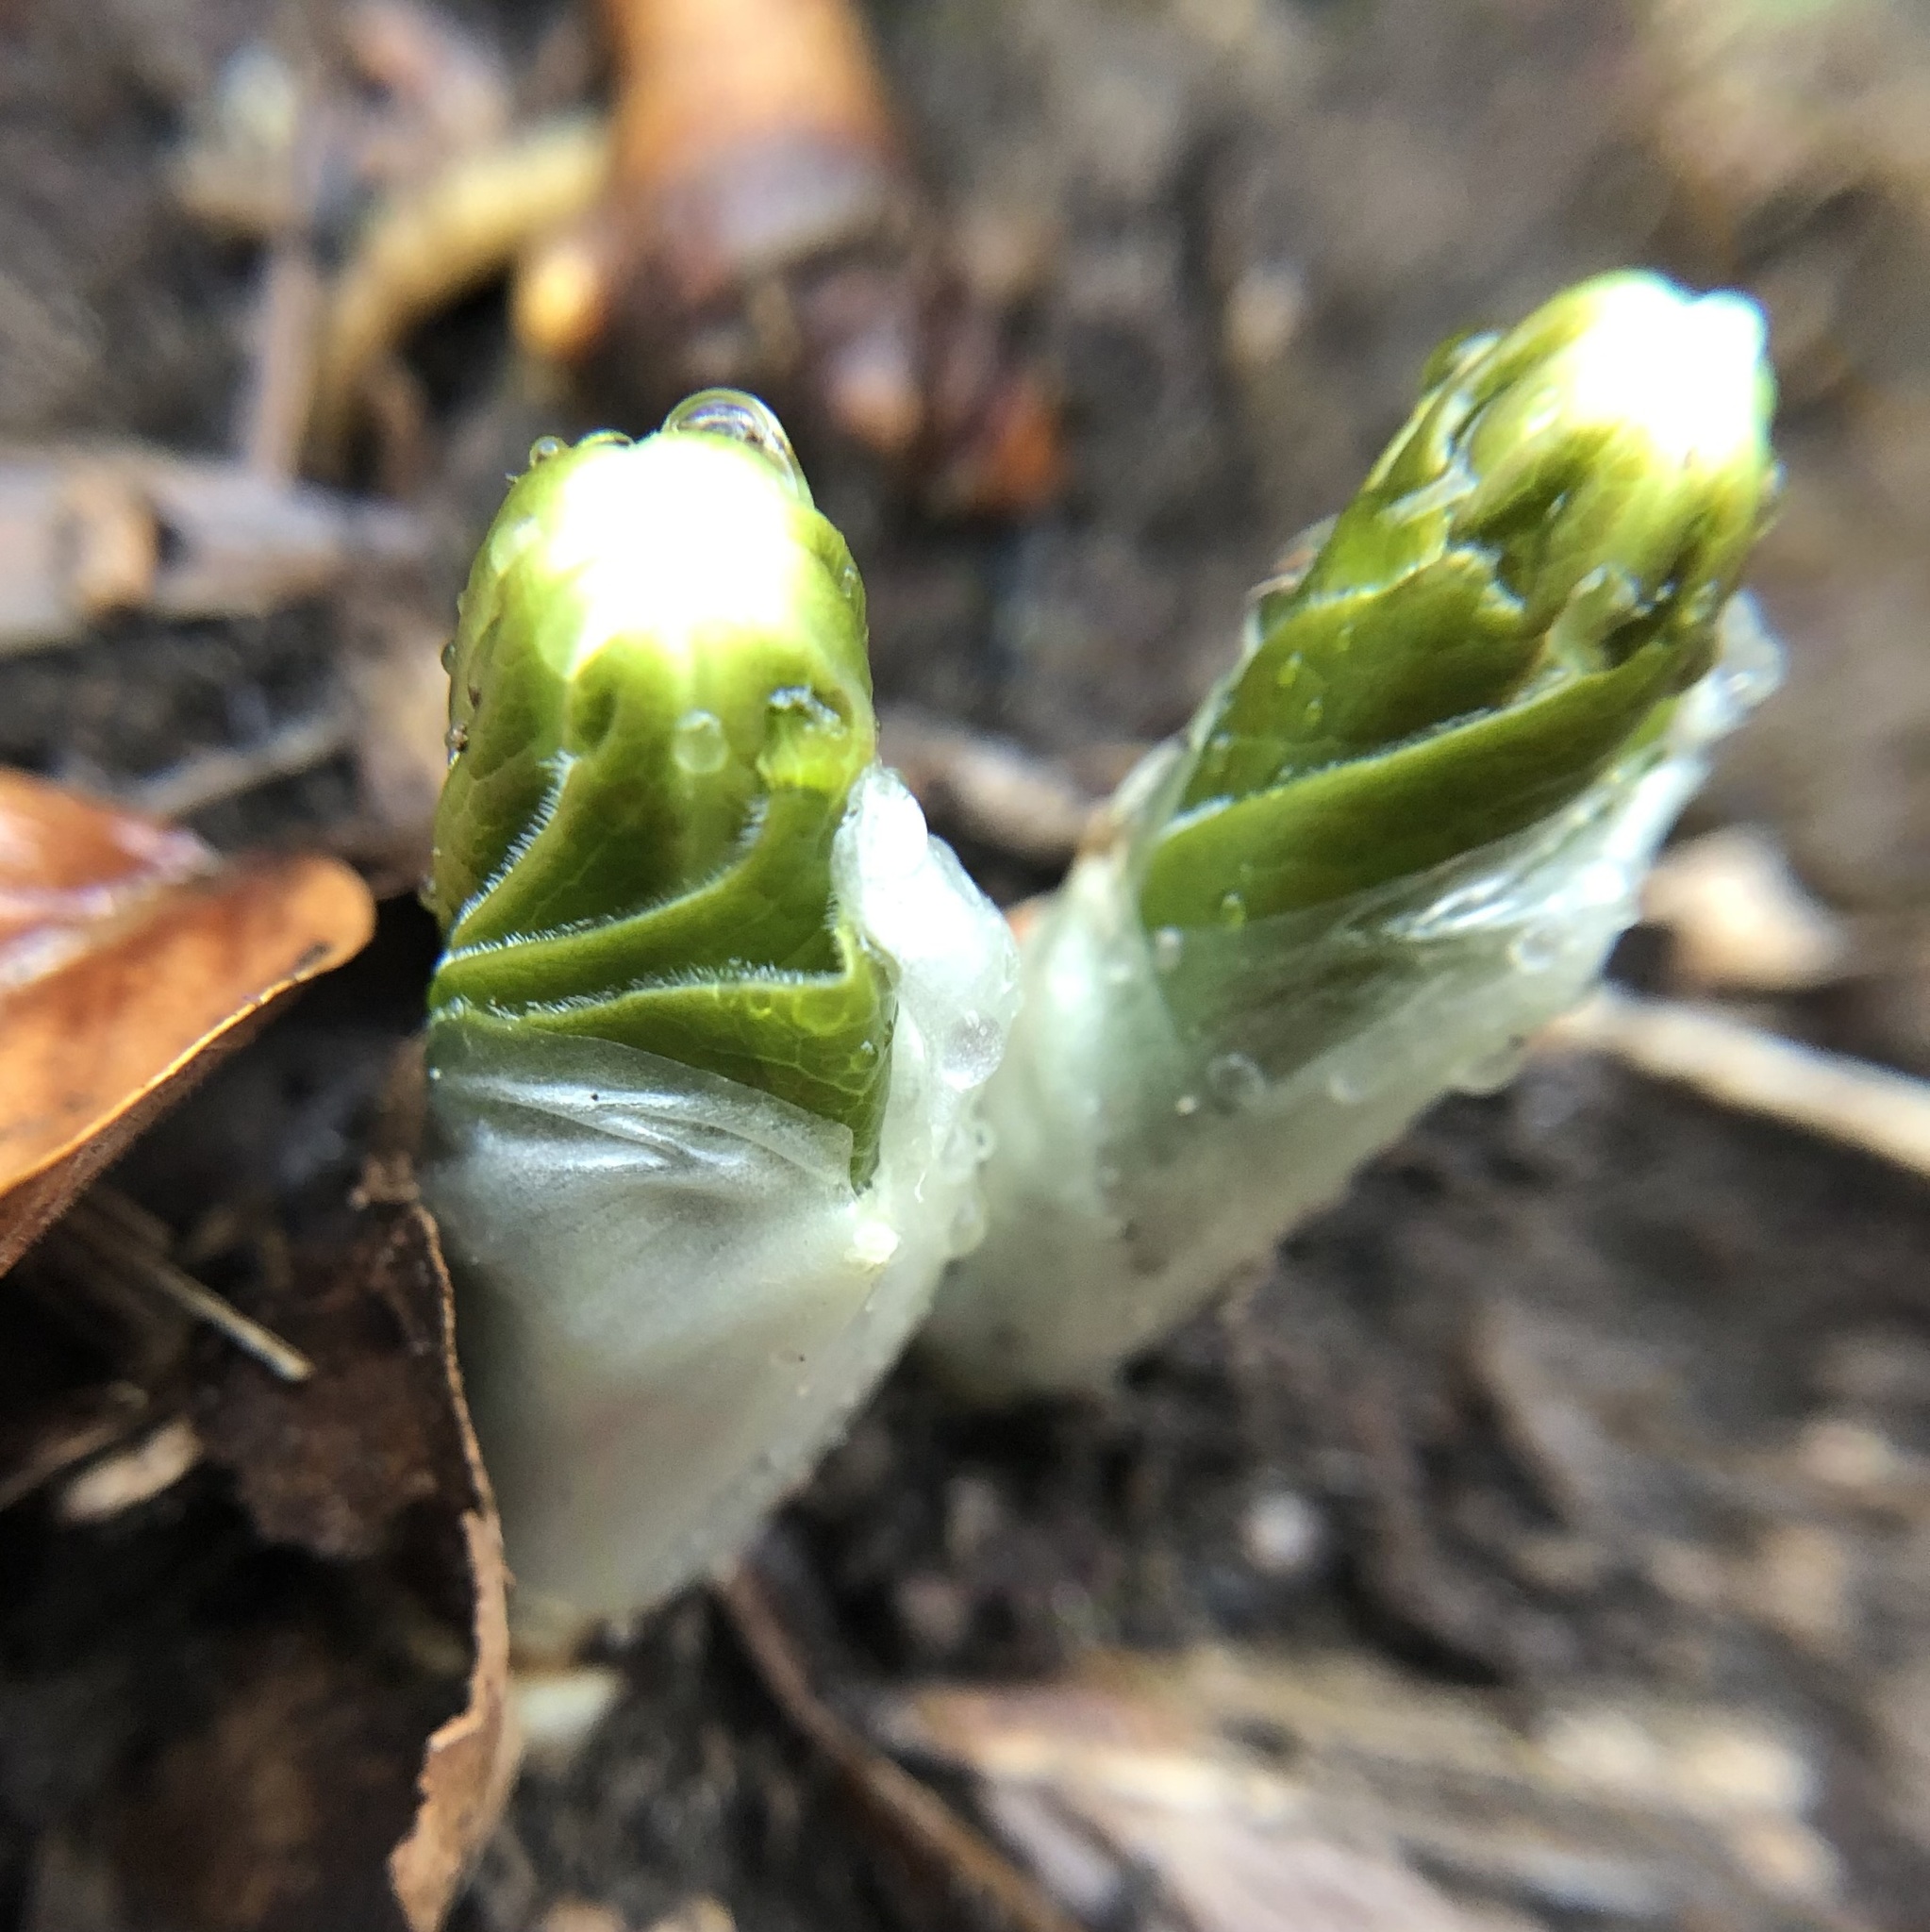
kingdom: Plantae
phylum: Tracheophyta
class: Magnoliopsida
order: Ranunculales
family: Berberidaceae
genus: Podophyllum
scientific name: Podophyllum peltatum
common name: Wild mandrake
